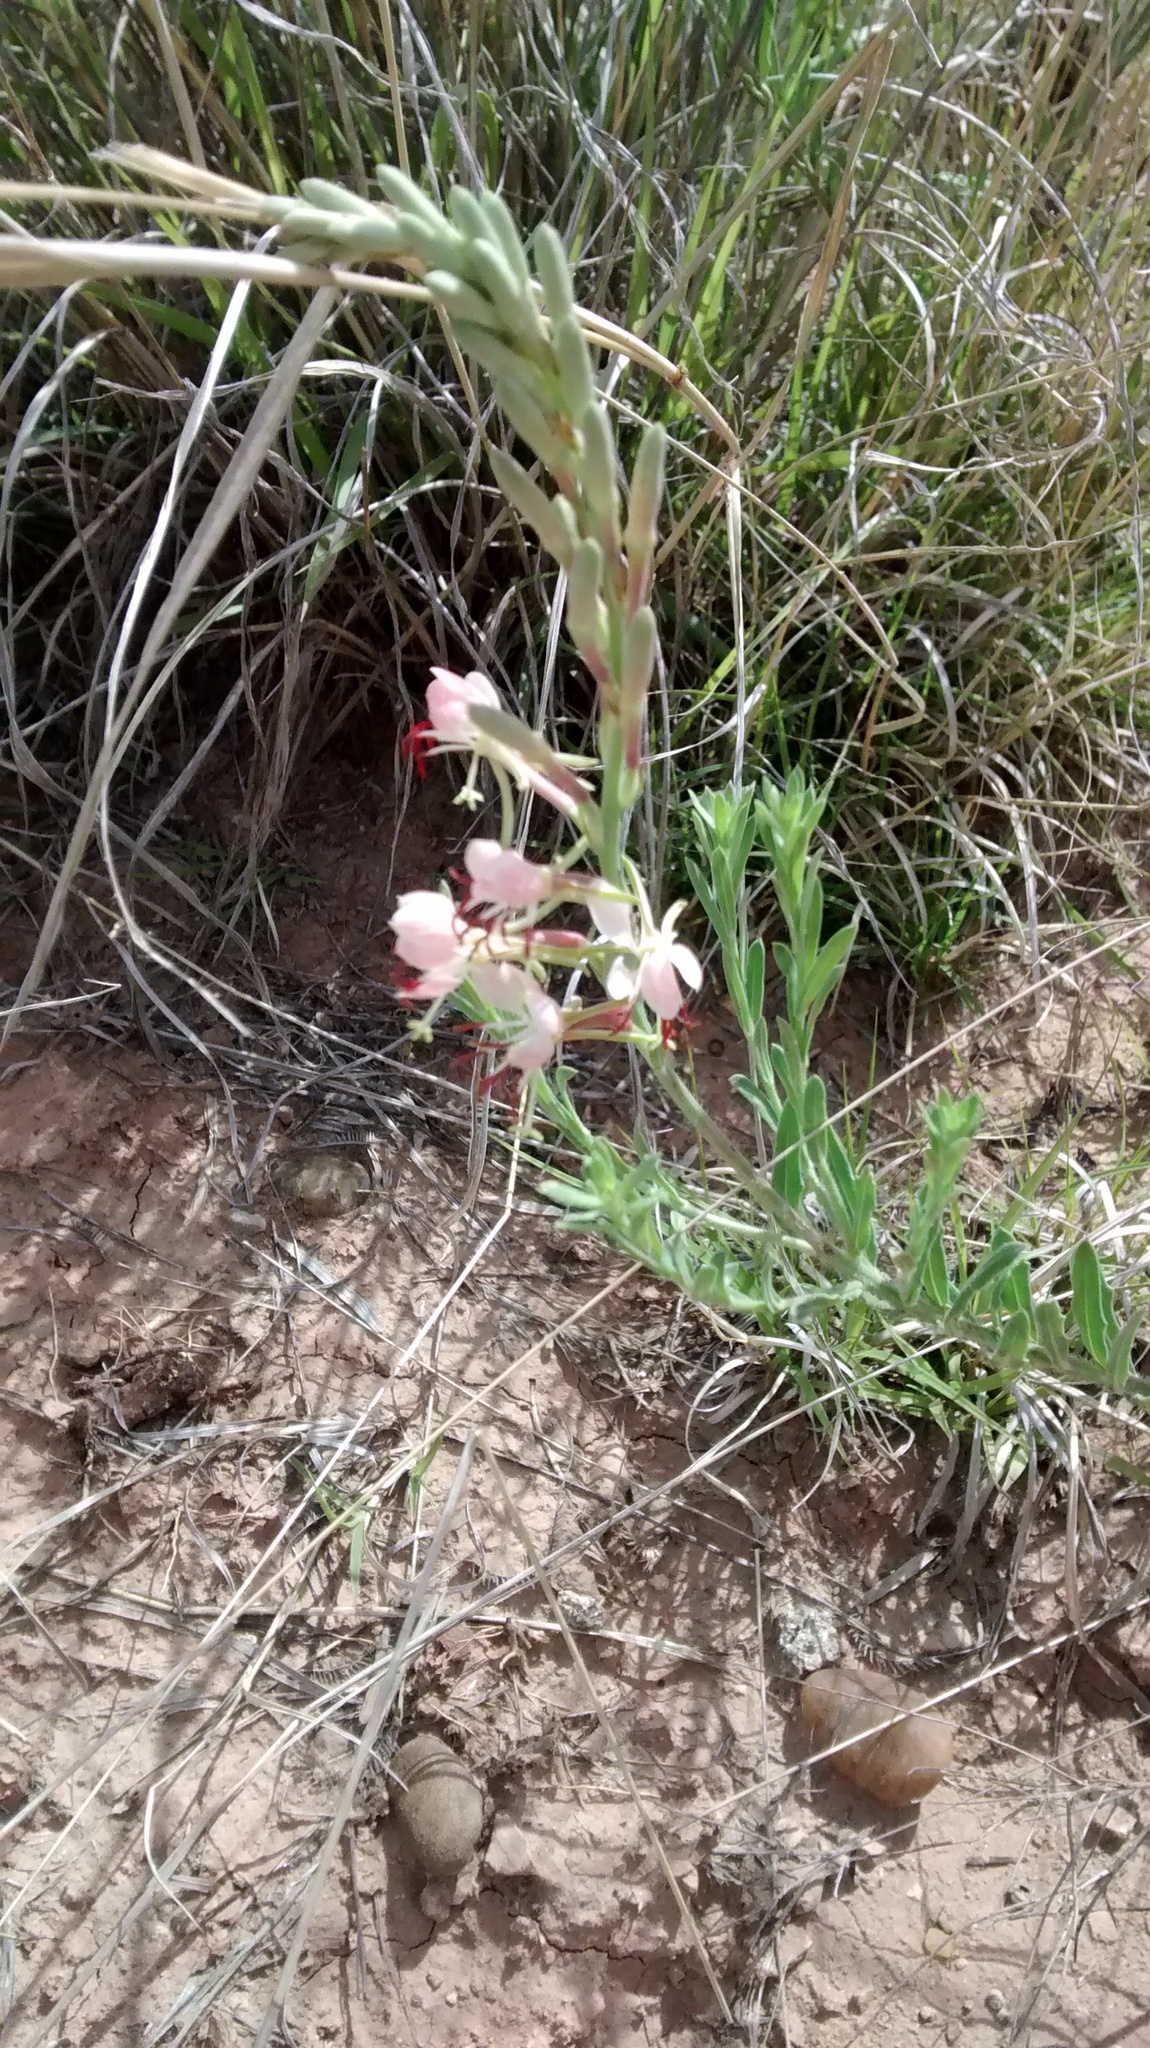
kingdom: Plantae
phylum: Tracheophyta
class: Magnoliopsida
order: Myrtales
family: Onagraceae
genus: Oenothera
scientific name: Oenothera suffrutescens
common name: Scarlet beeblossom
